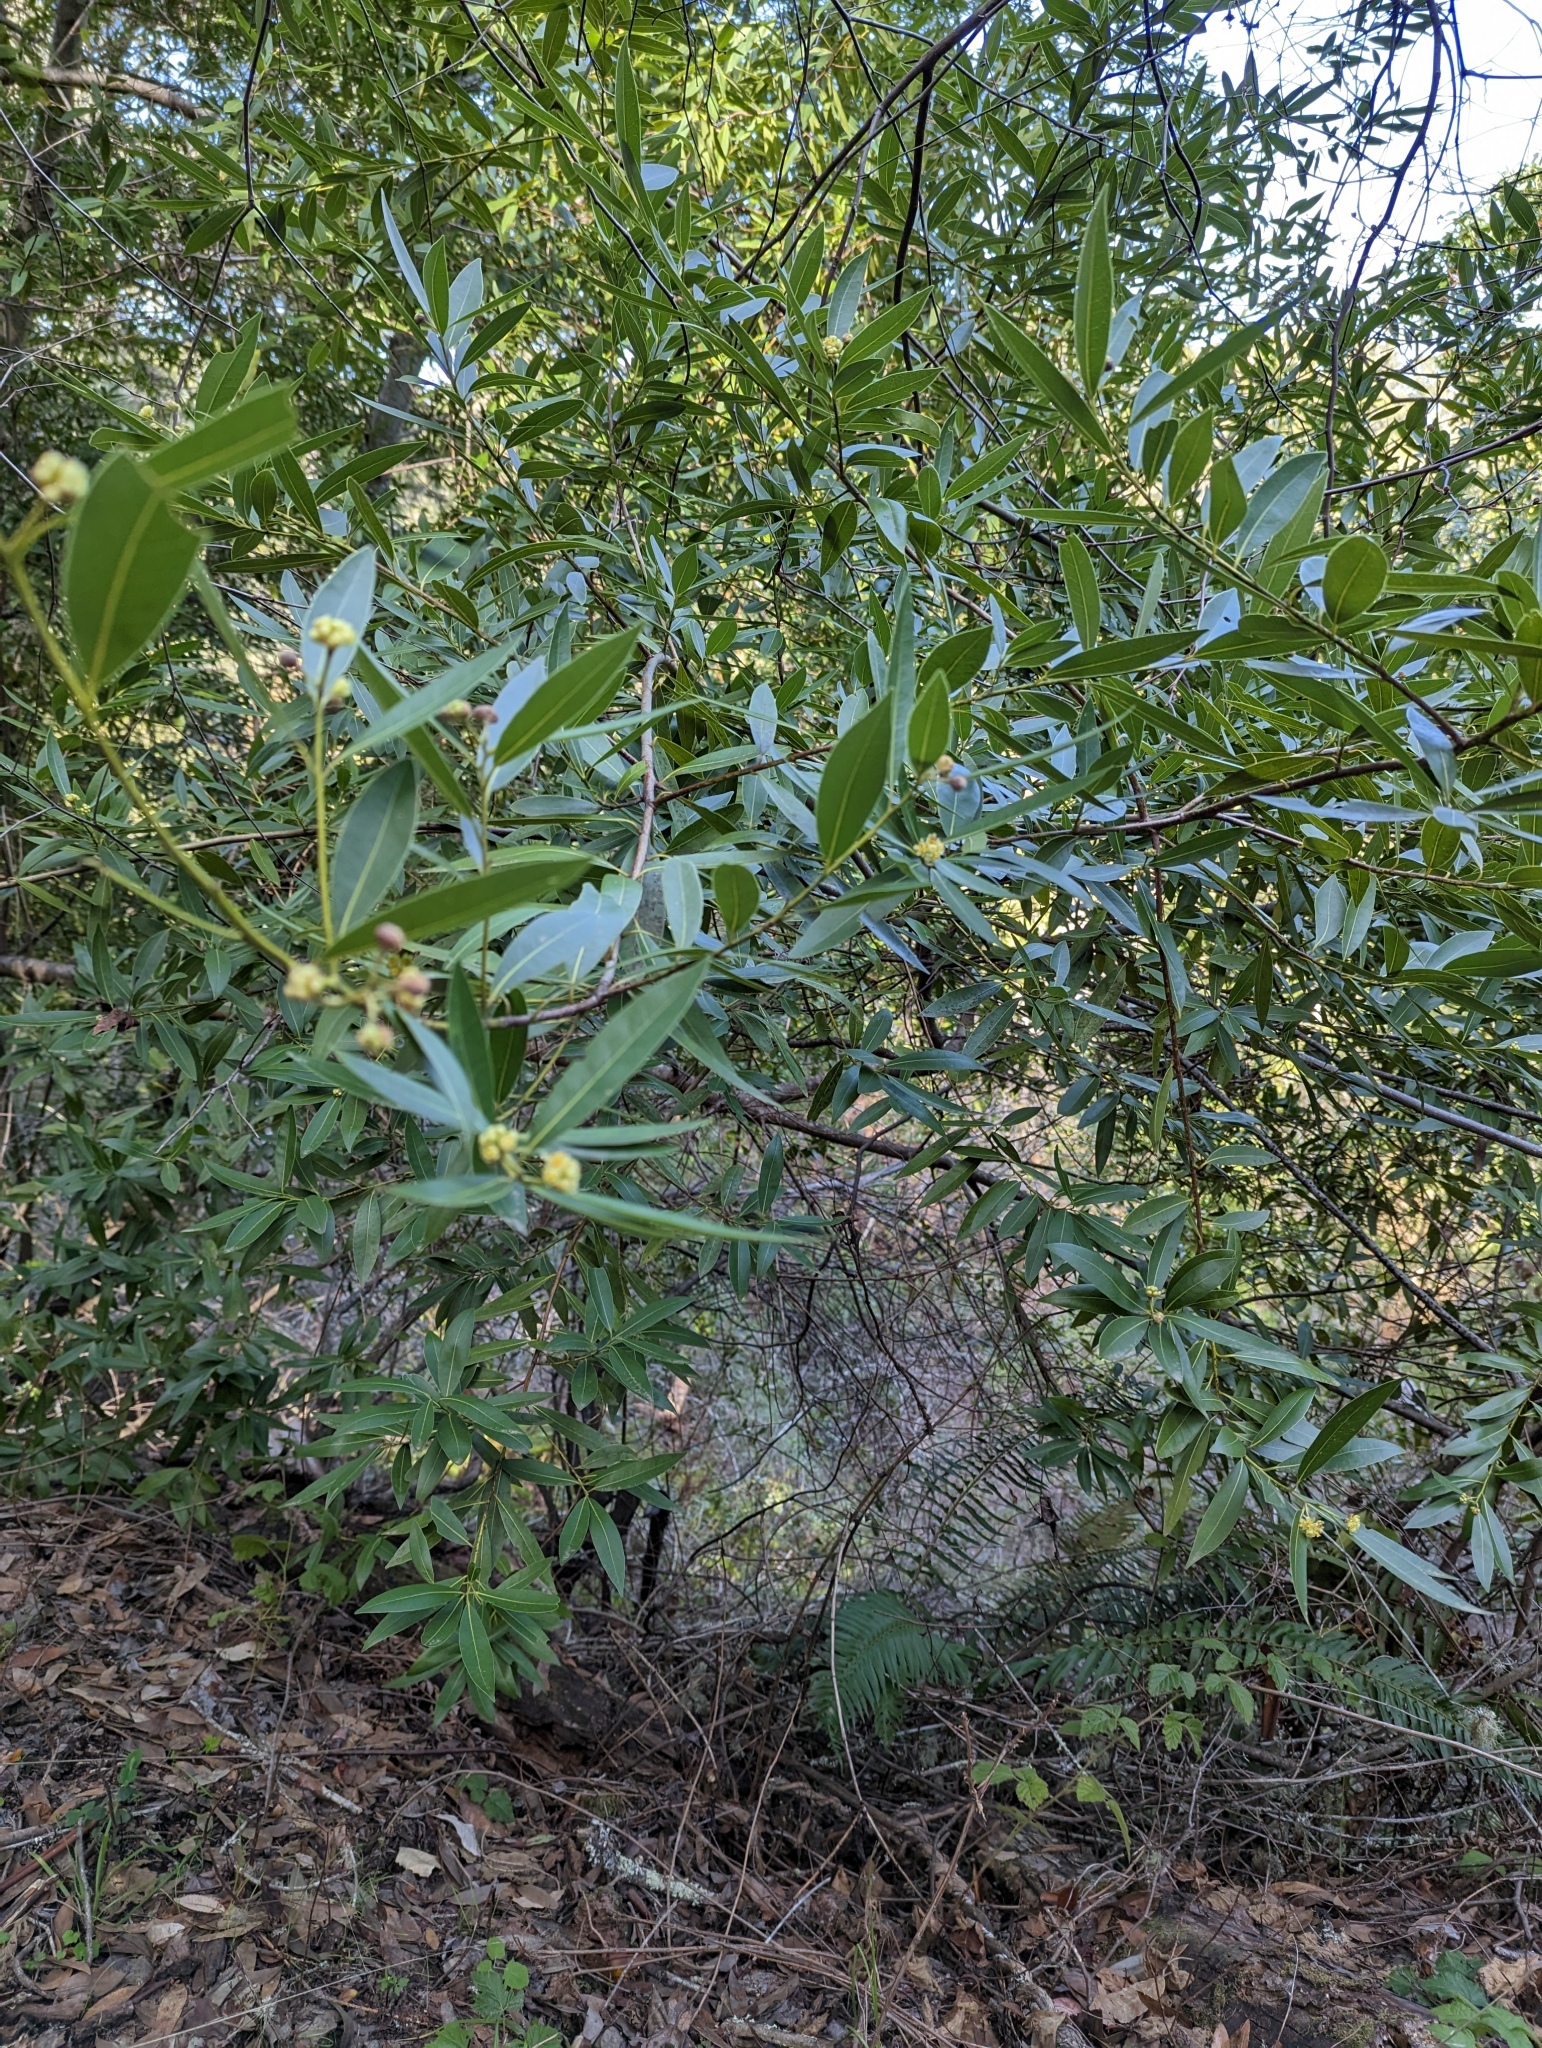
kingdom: Plantae
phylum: Tracheophyta
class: Magnoliopsida
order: Laurales
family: Lauraceae
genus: Umbellularia
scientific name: Umbellularia californica
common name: California bay
